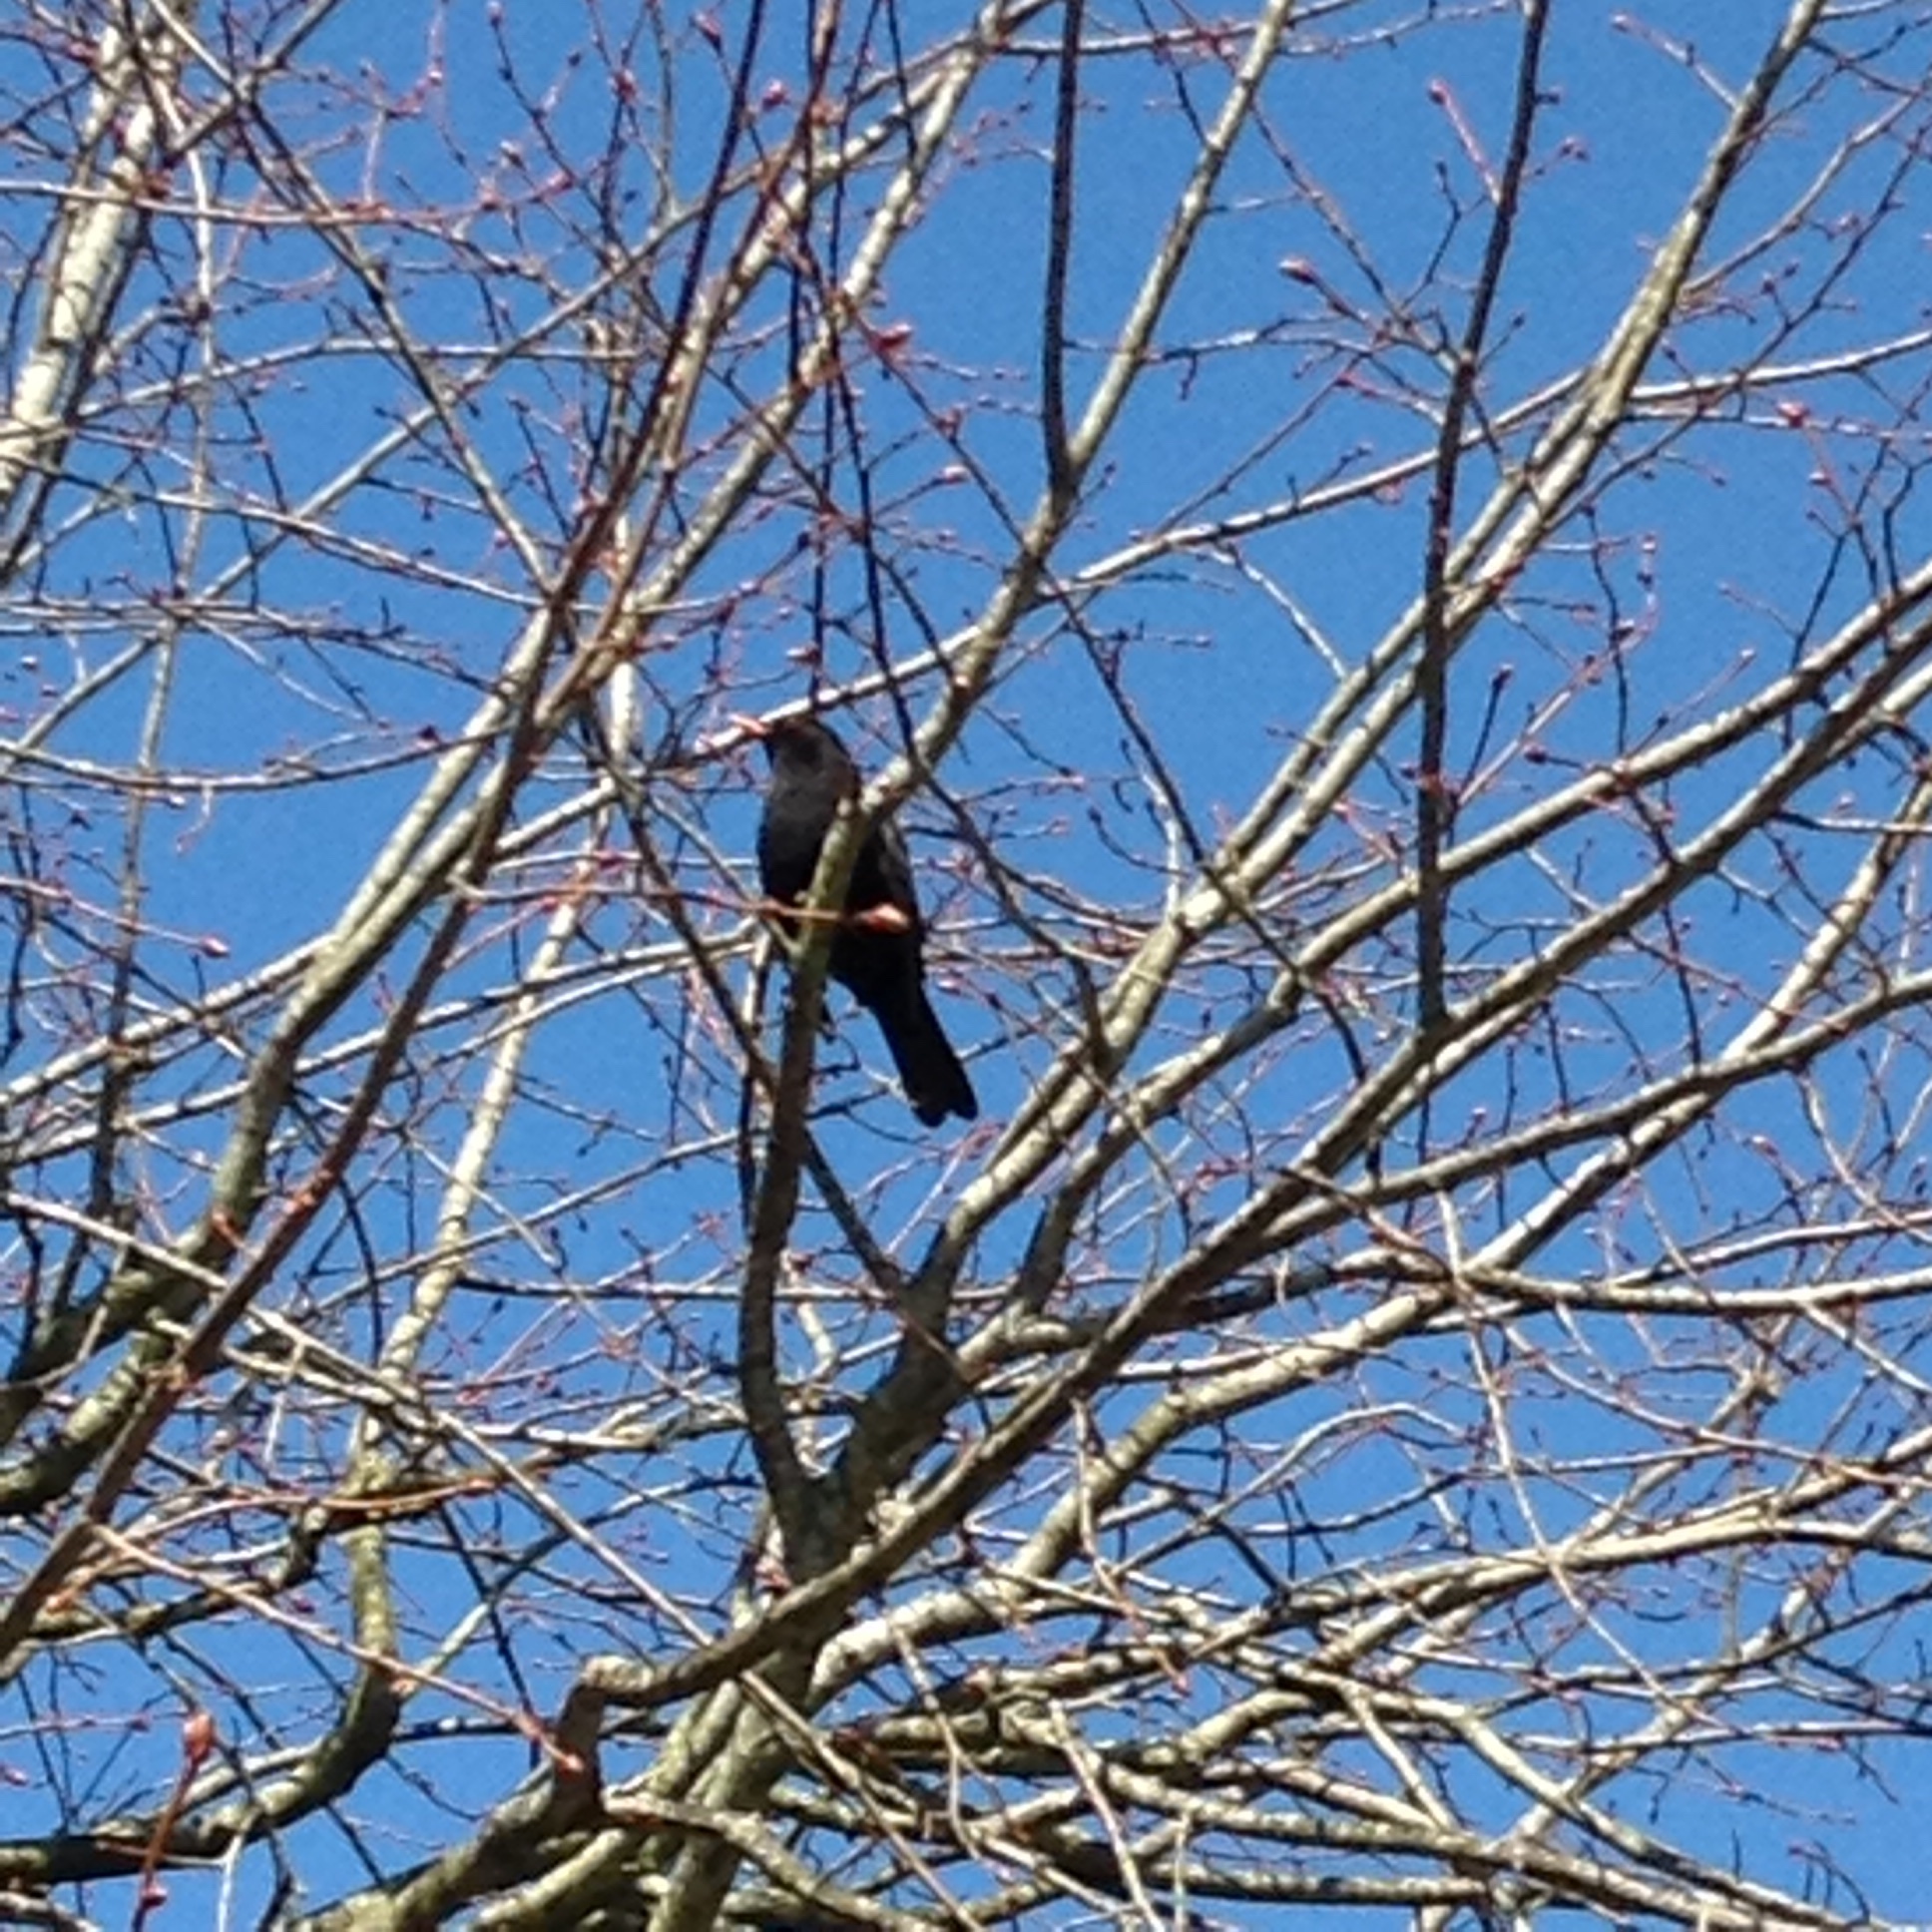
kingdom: Animalia
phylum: Chordata
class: Aves
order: Passeriformes
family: Turdidae
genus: Turdus
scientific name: Turdus merula
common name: Common blackbird
